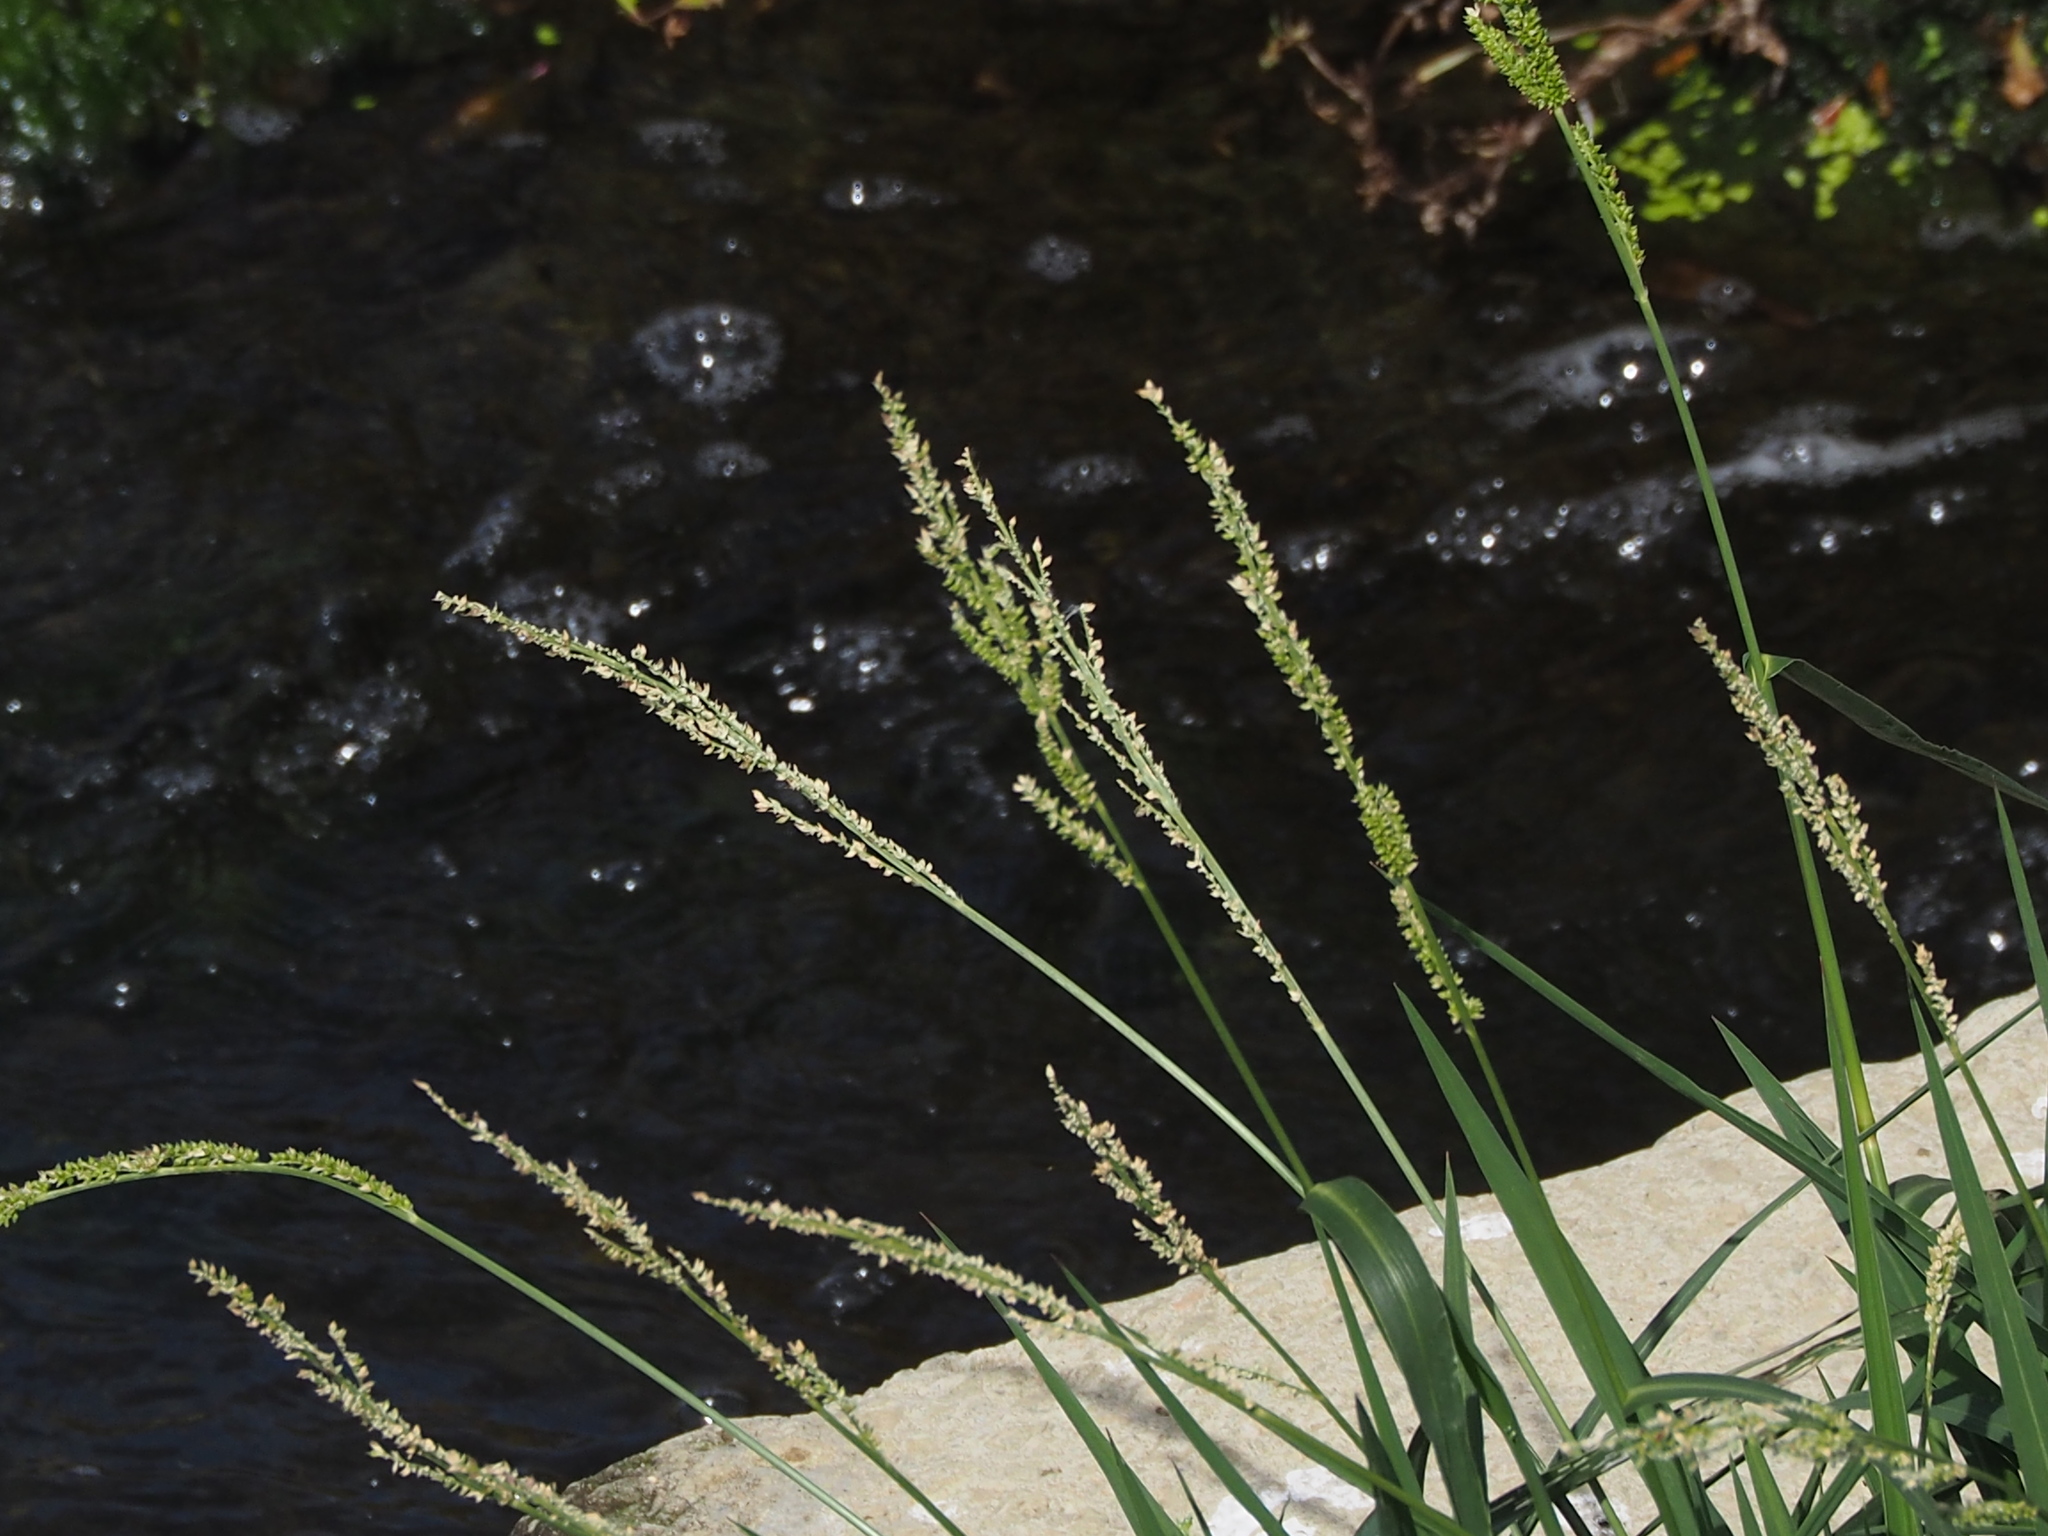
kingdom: Plantae
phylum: Tracheophyta
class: Liliopsida
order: Poales
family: Poaceae
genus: Echinochloa
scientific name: Echinochloa crus-galli
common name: Cockspur
